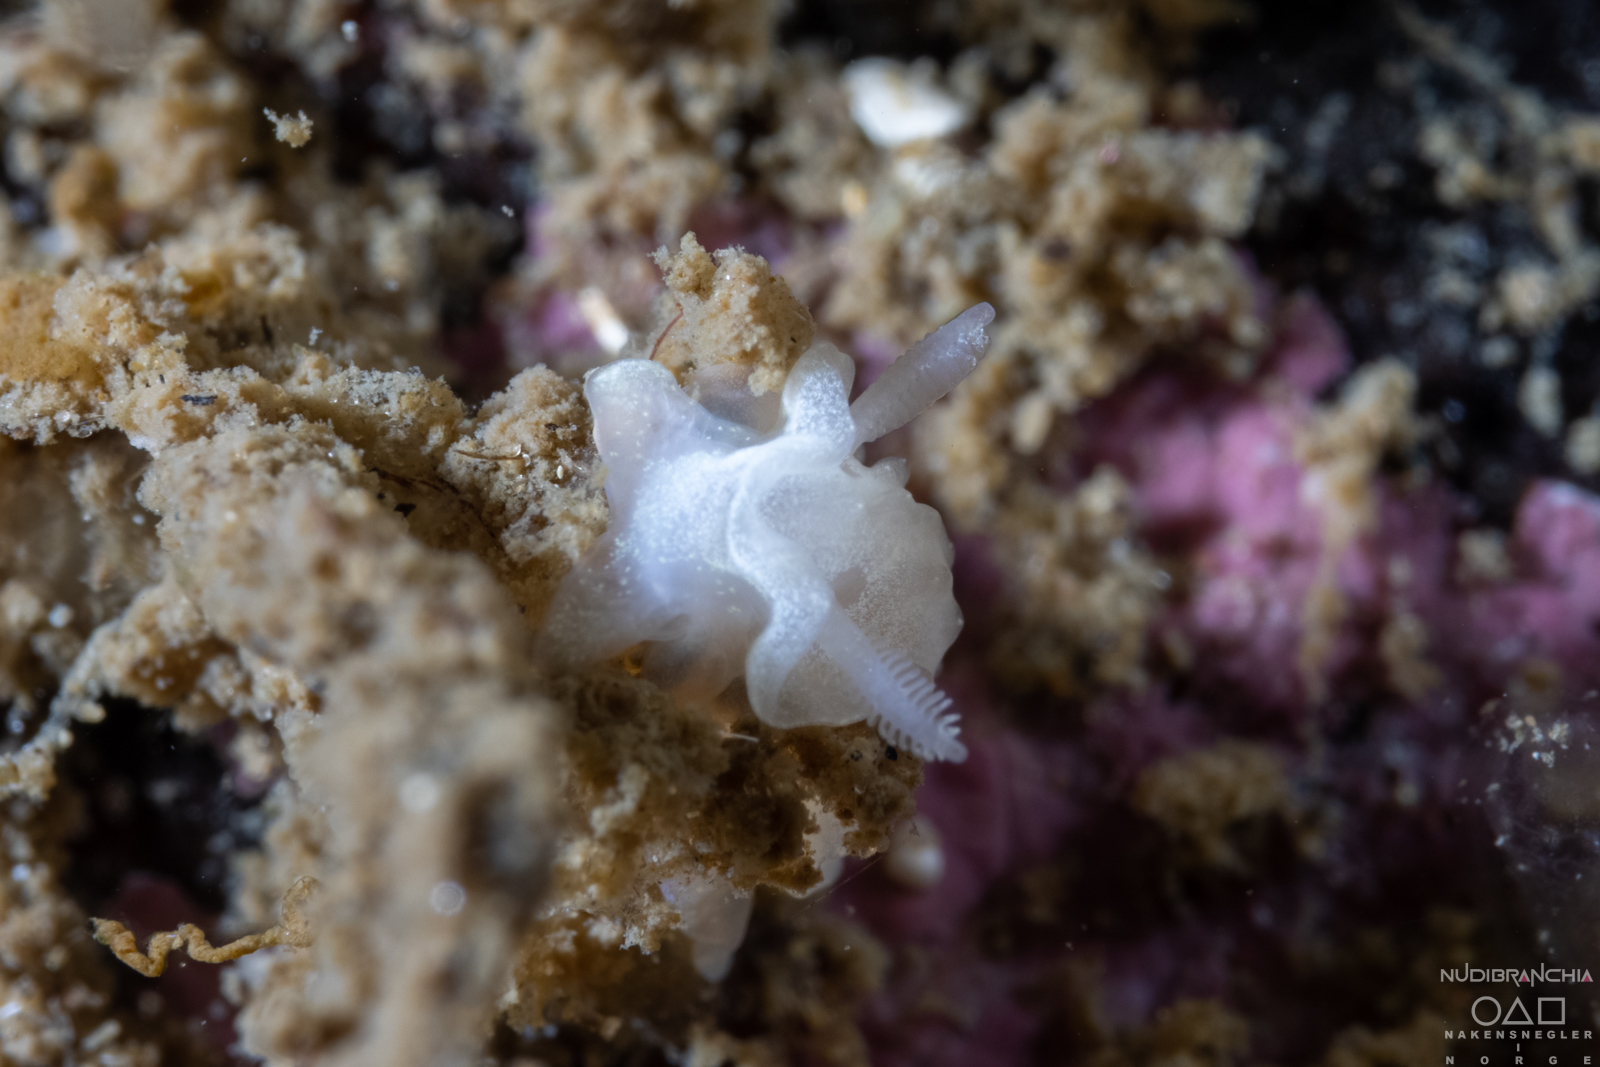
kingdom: Animalia
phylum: Mollusca
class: Gastropoda
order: Nudibranchia
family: Goniodorididae
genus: Okenia
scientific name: Okenia
